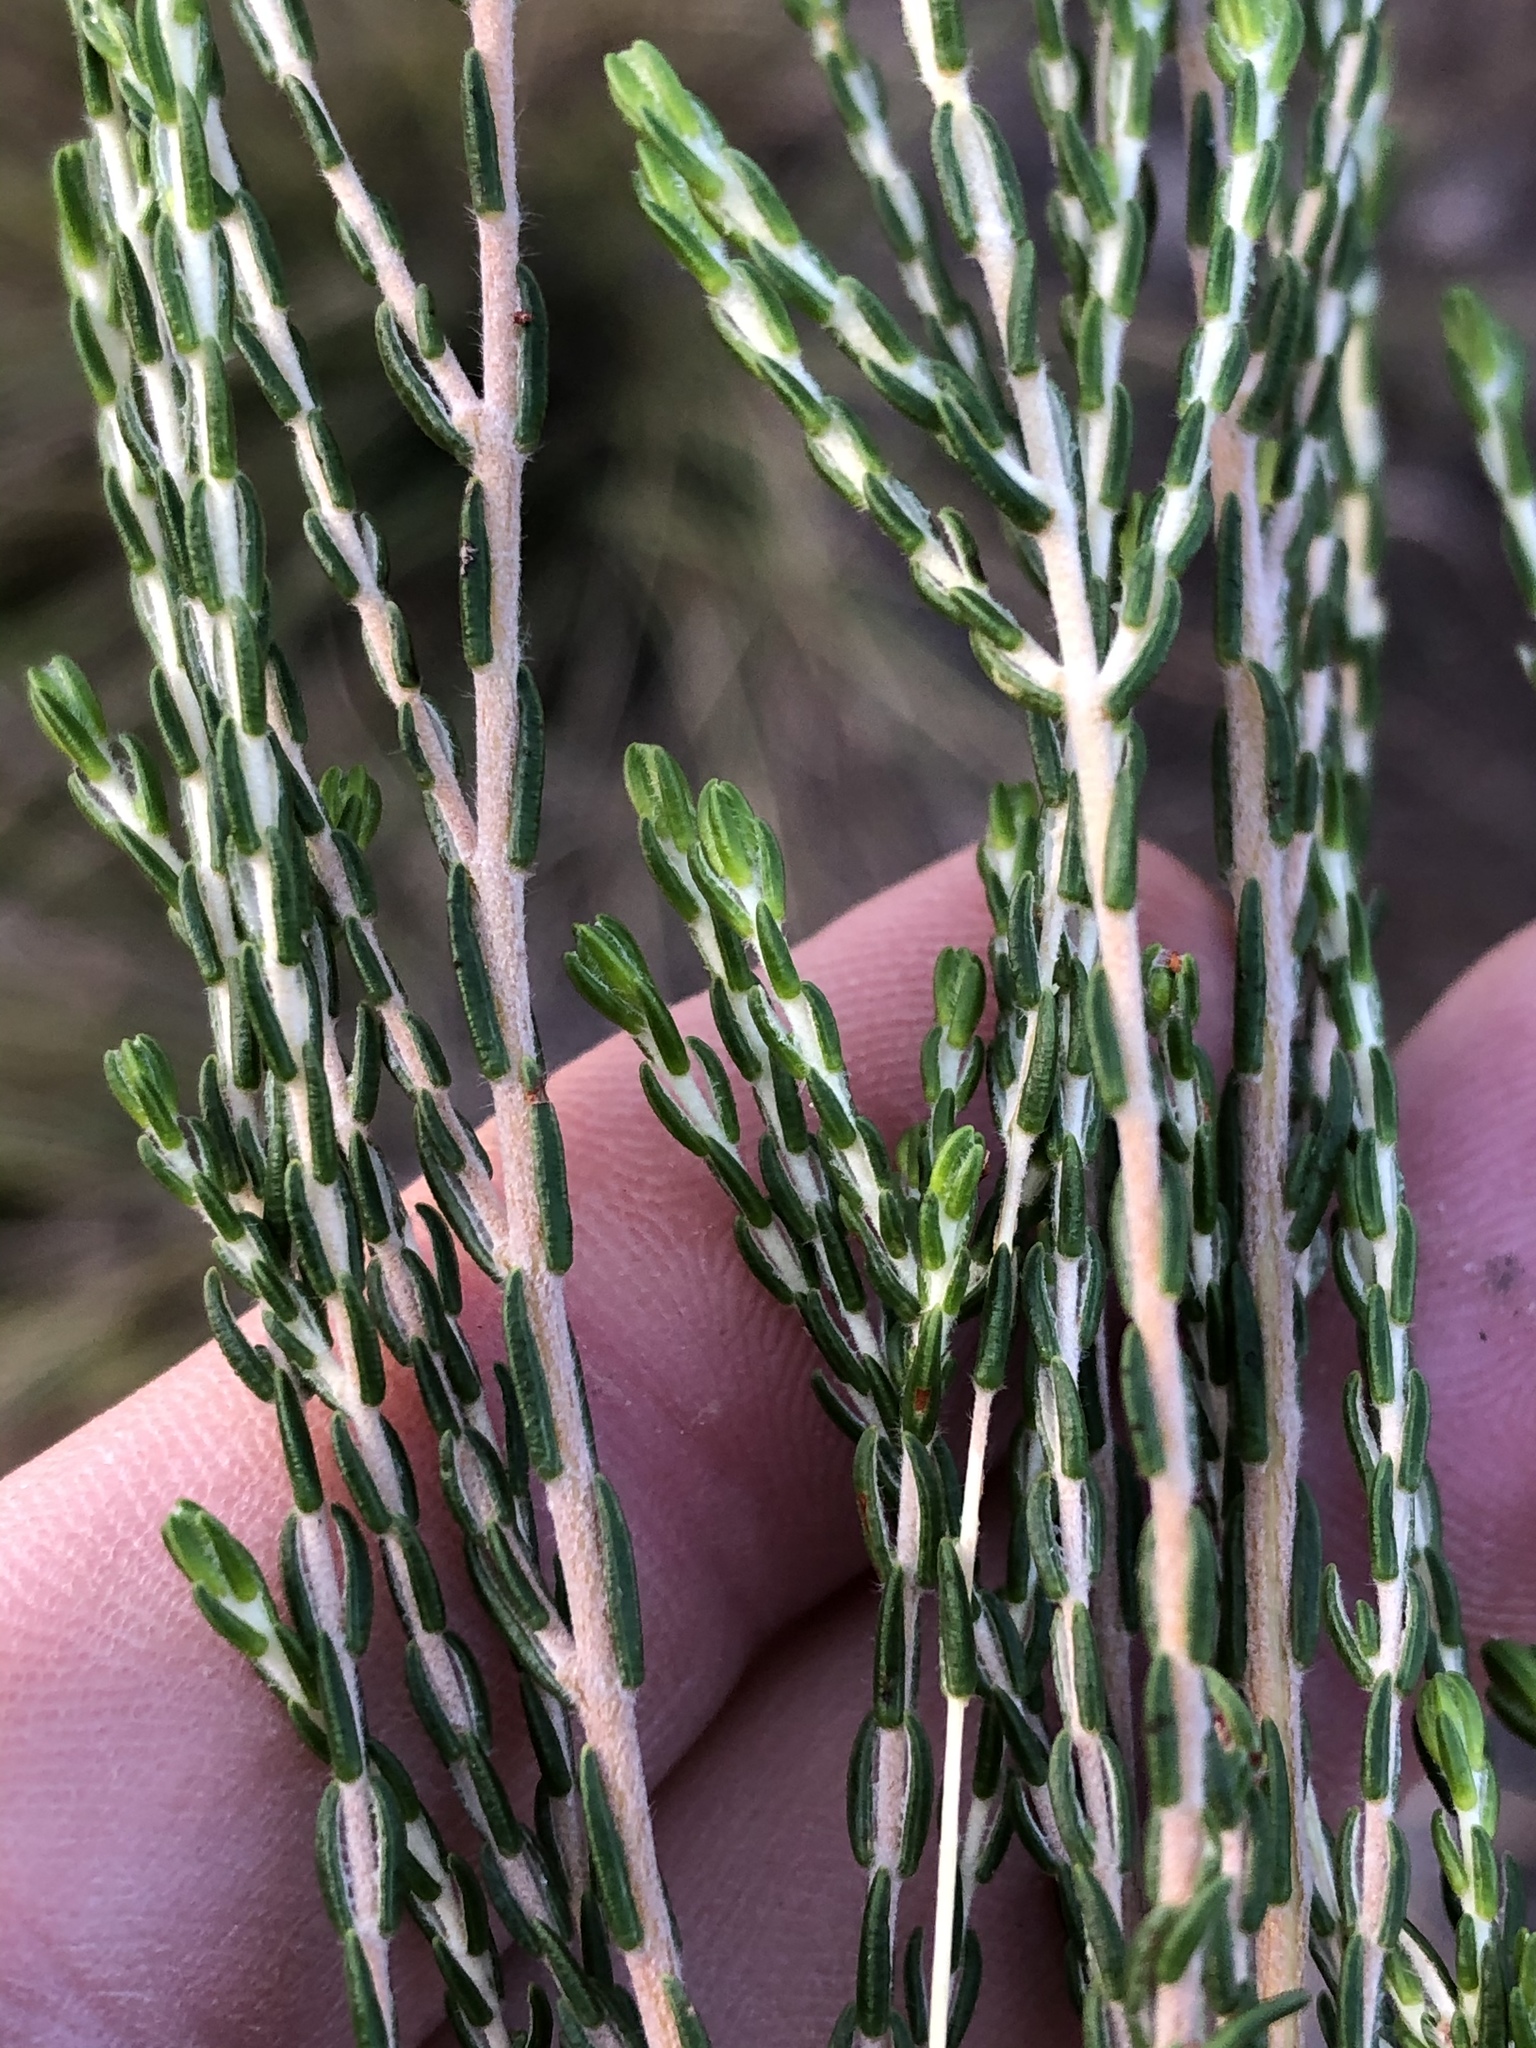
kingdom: Plantae
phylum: Tracheophyta
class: Magnoliopsida
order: Malvales
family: Thymelaeaceae
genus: Passerina
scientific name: Passerina rigida
